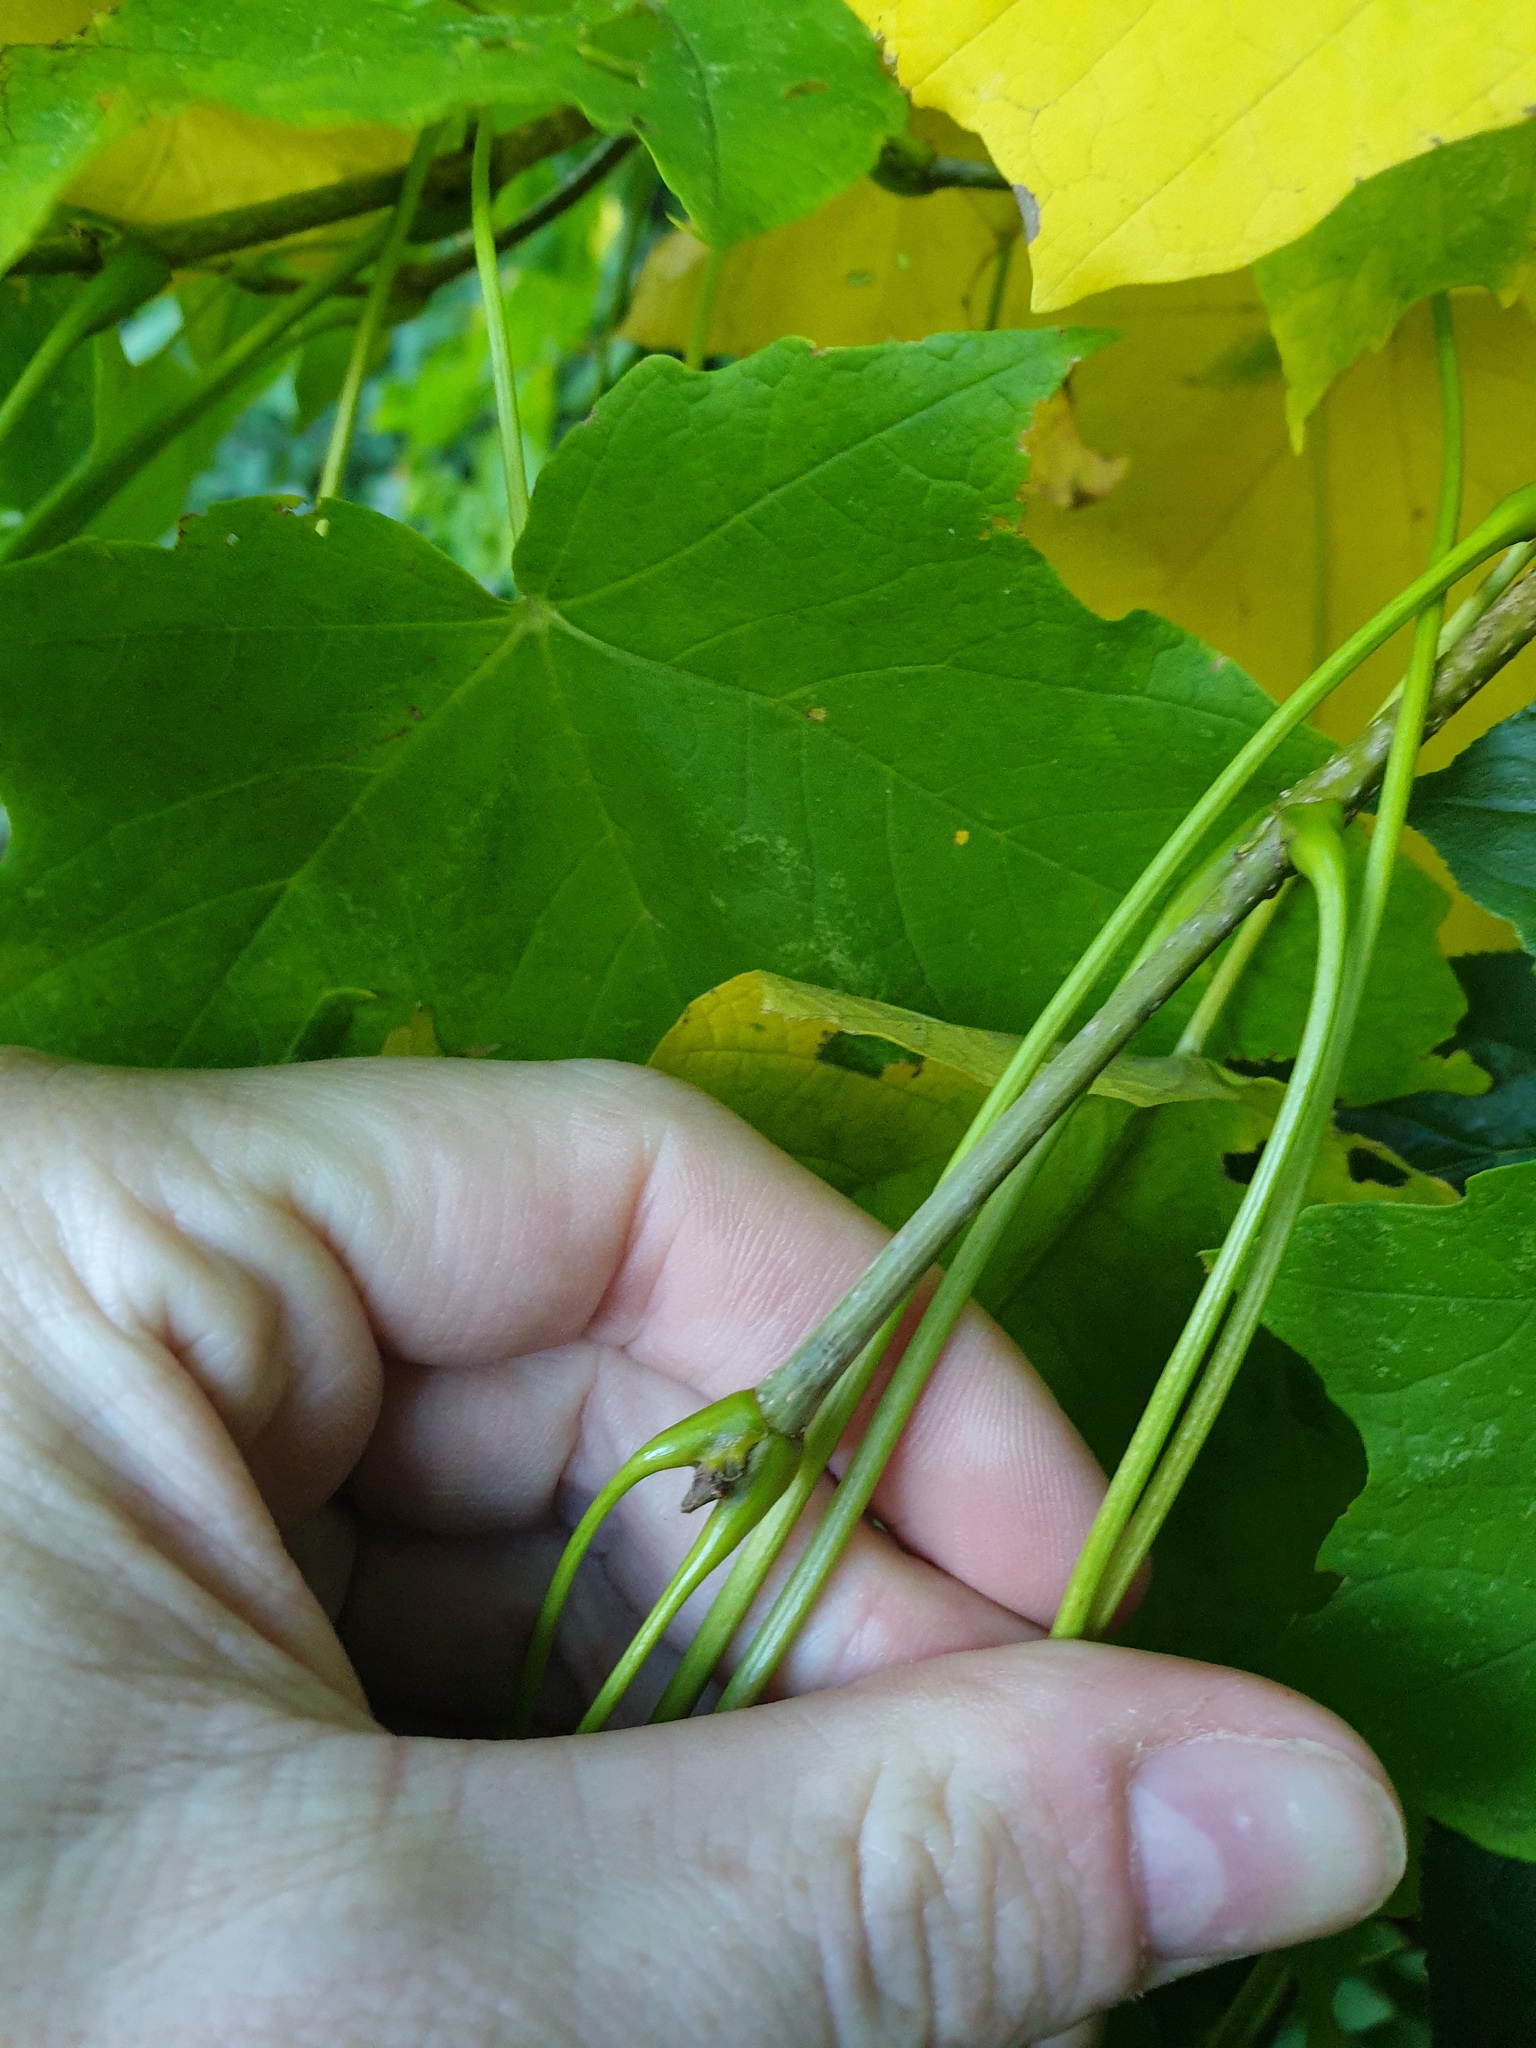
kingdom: Plantae
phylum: Tracheophyta
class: Magnoliopsida
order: Sapindales
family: Sapindaceae
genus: Acer
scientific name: Acer nigrum
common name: Black maple
